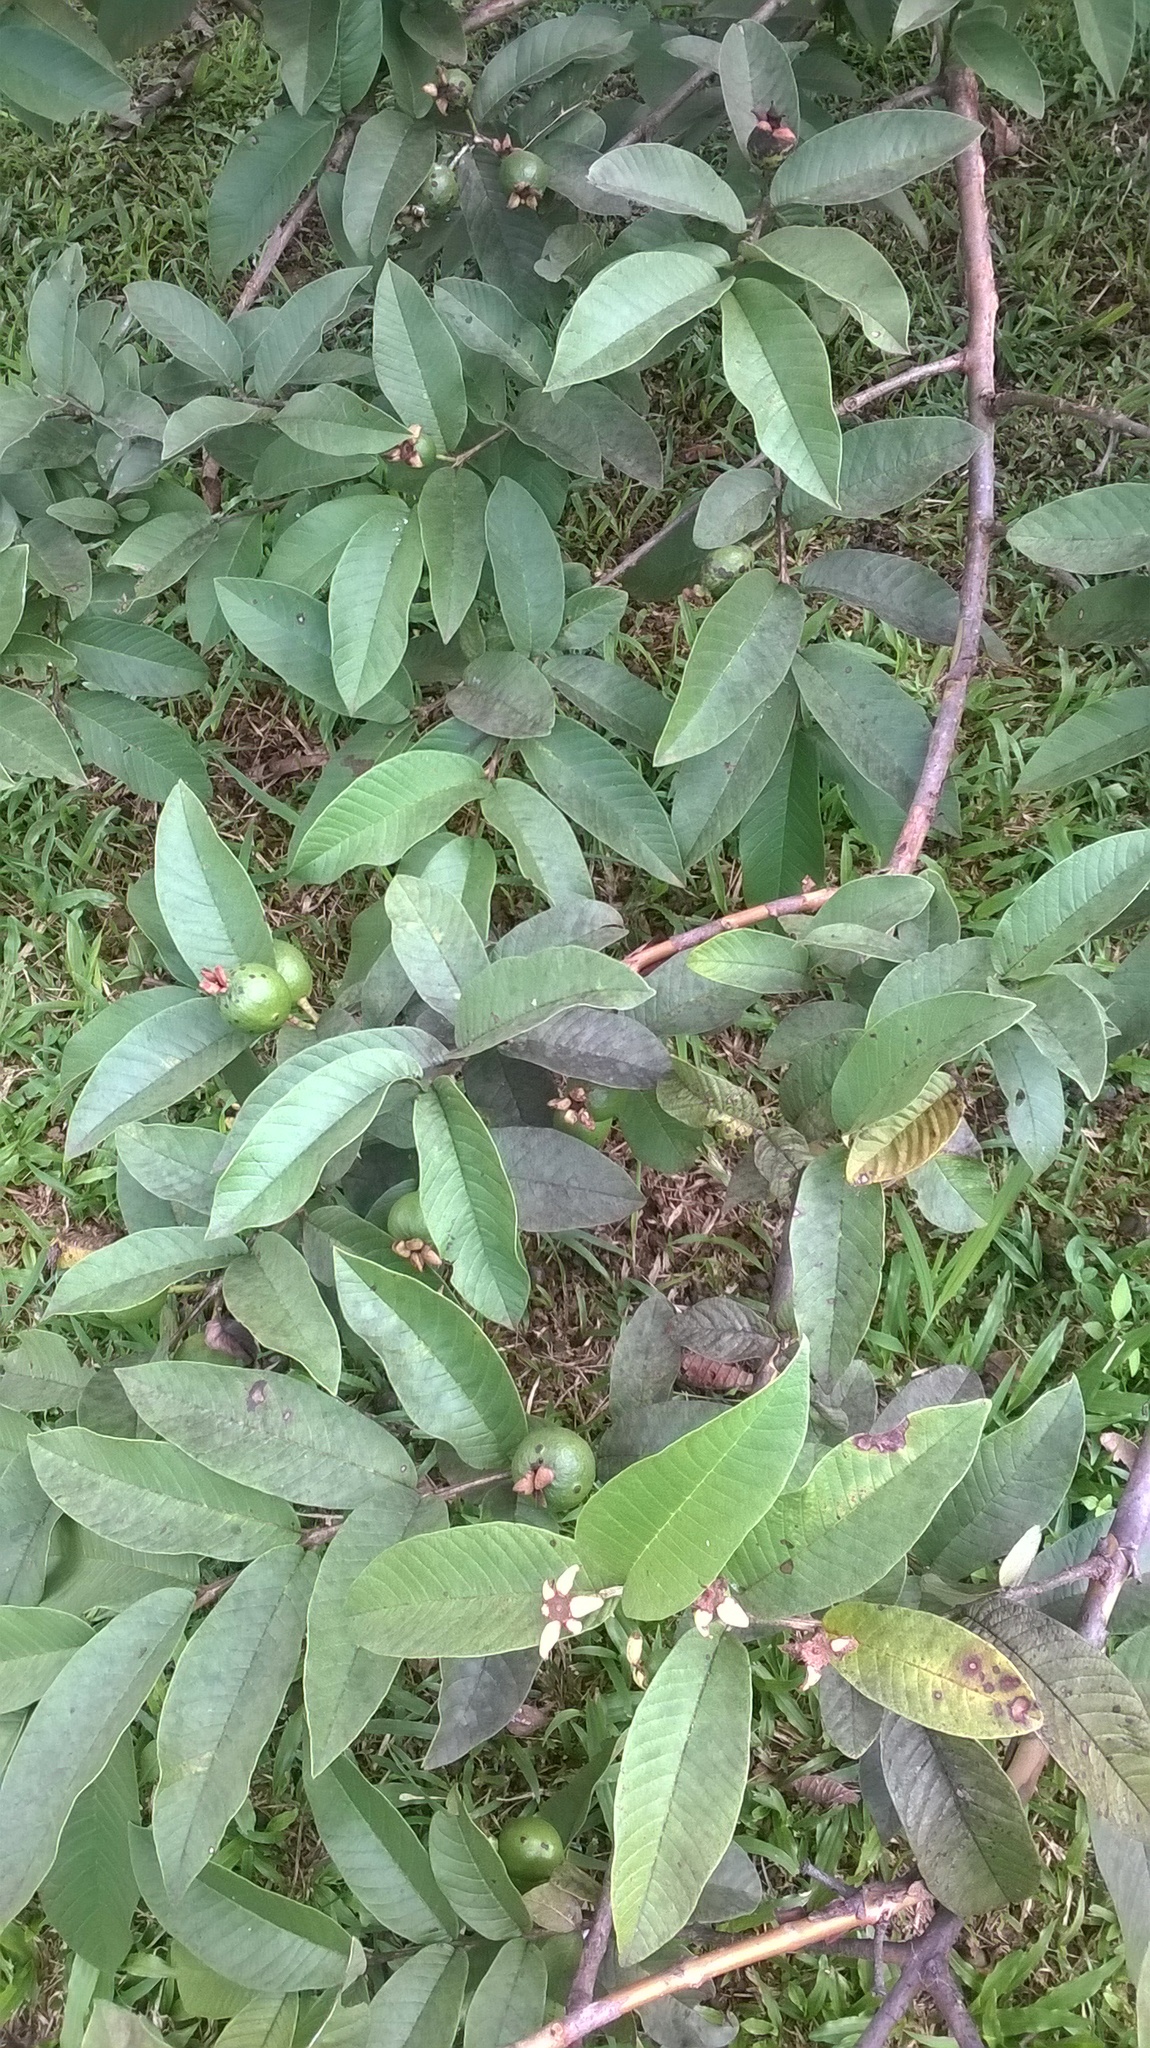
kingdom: Plantae
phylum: Tracheophyta
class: Magnoliopsida
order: Myrtales
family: Myrtaceae
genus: Psidium
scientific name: Psidium guajava
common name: Guava
